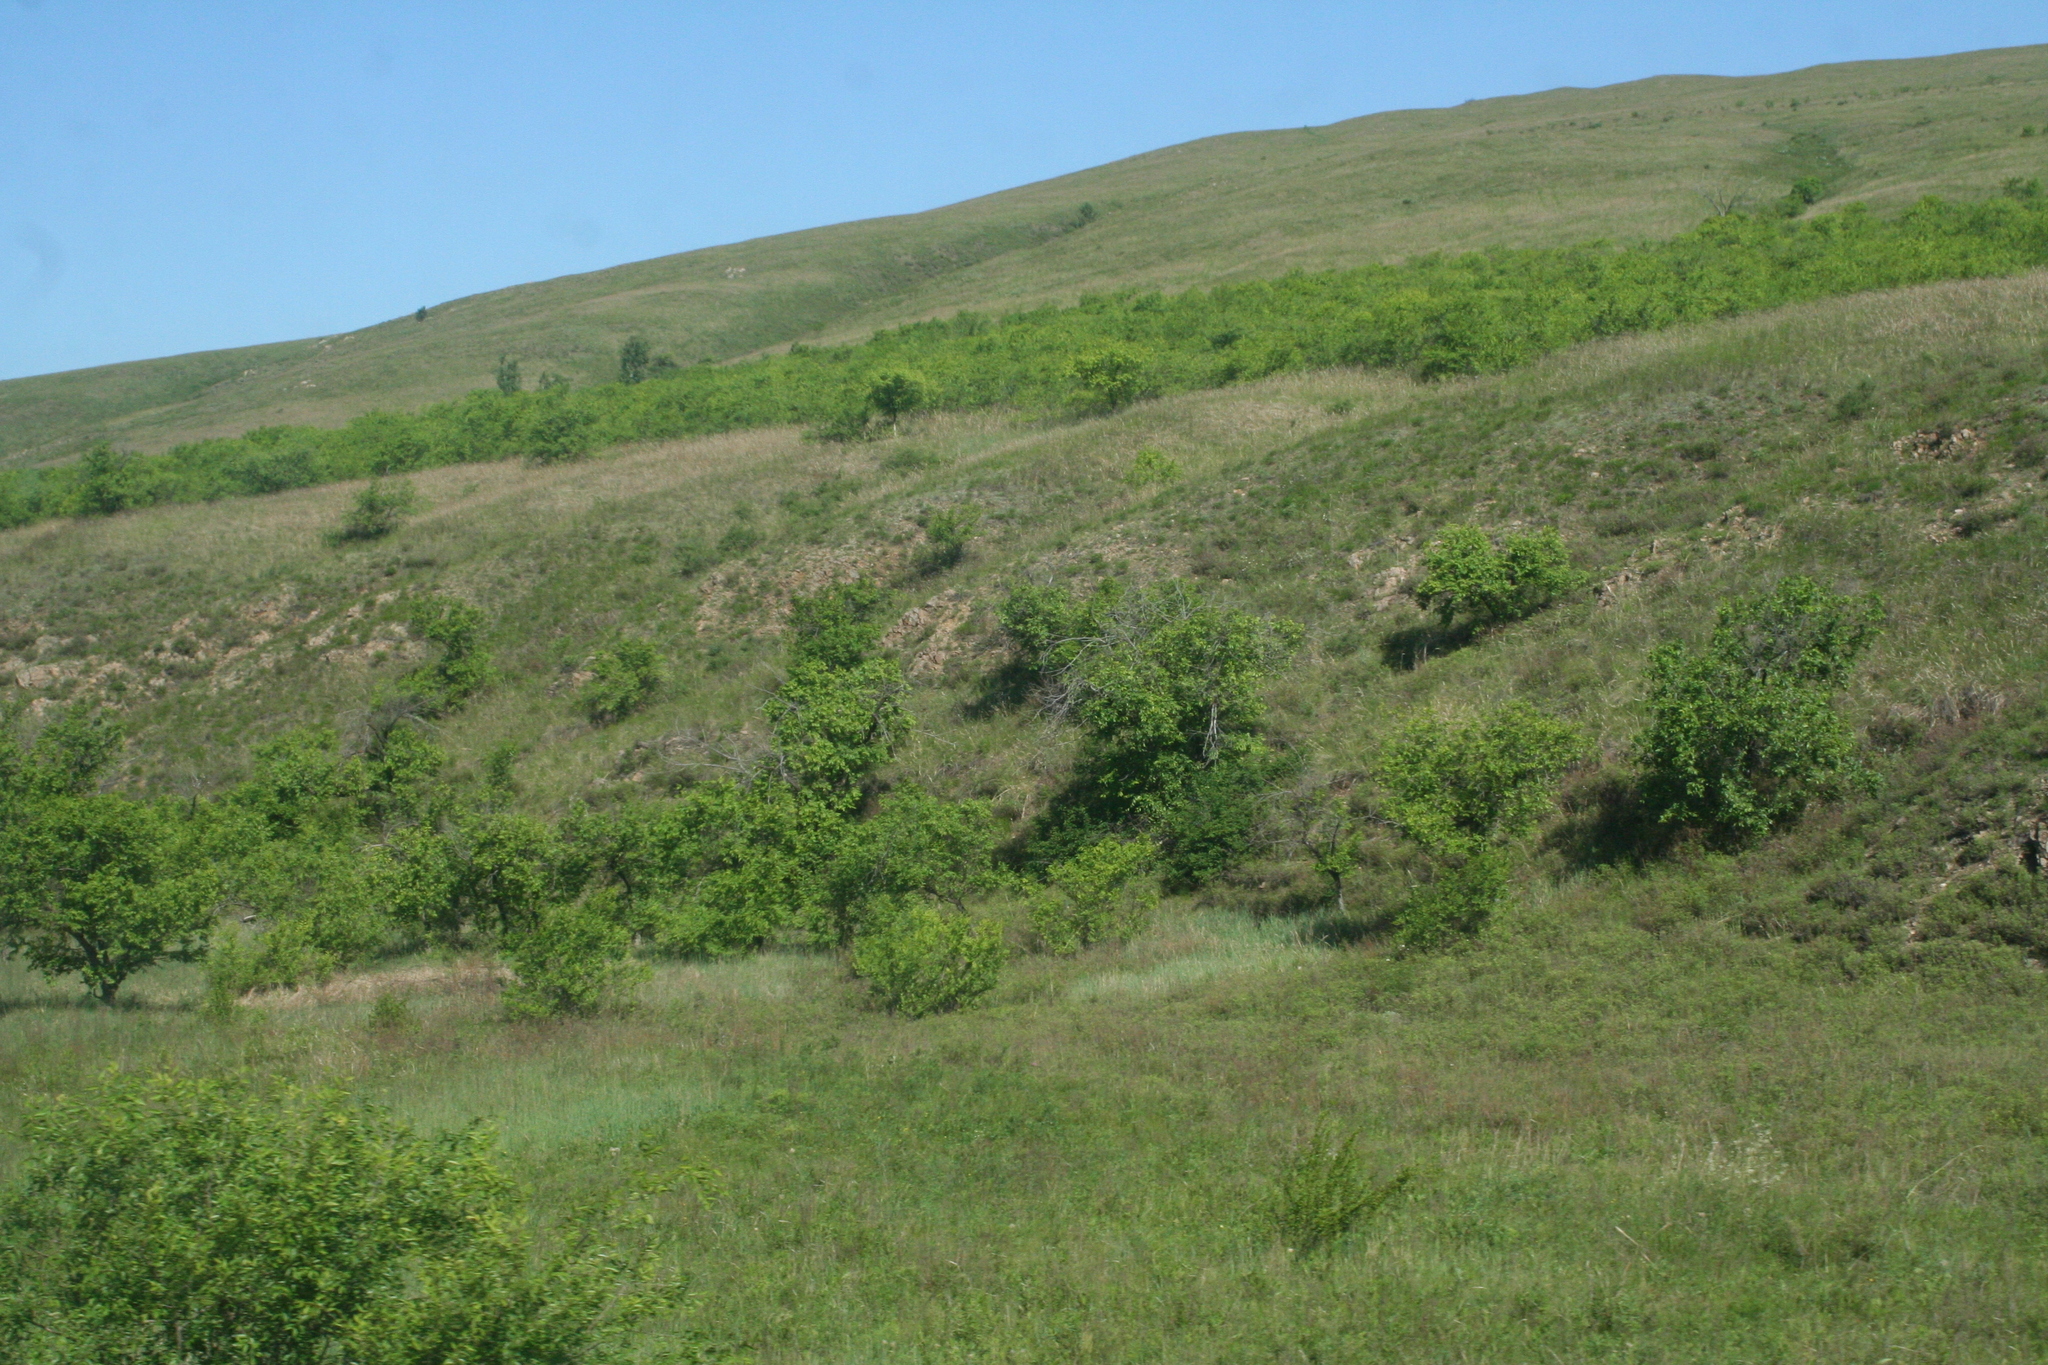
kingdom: Plantae
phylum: Tracheophyta
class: Magnoliopsida
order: Rosales
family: Ulmaceae
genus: Ulmus
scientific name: Ulmus pumila
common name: Siberian elm
